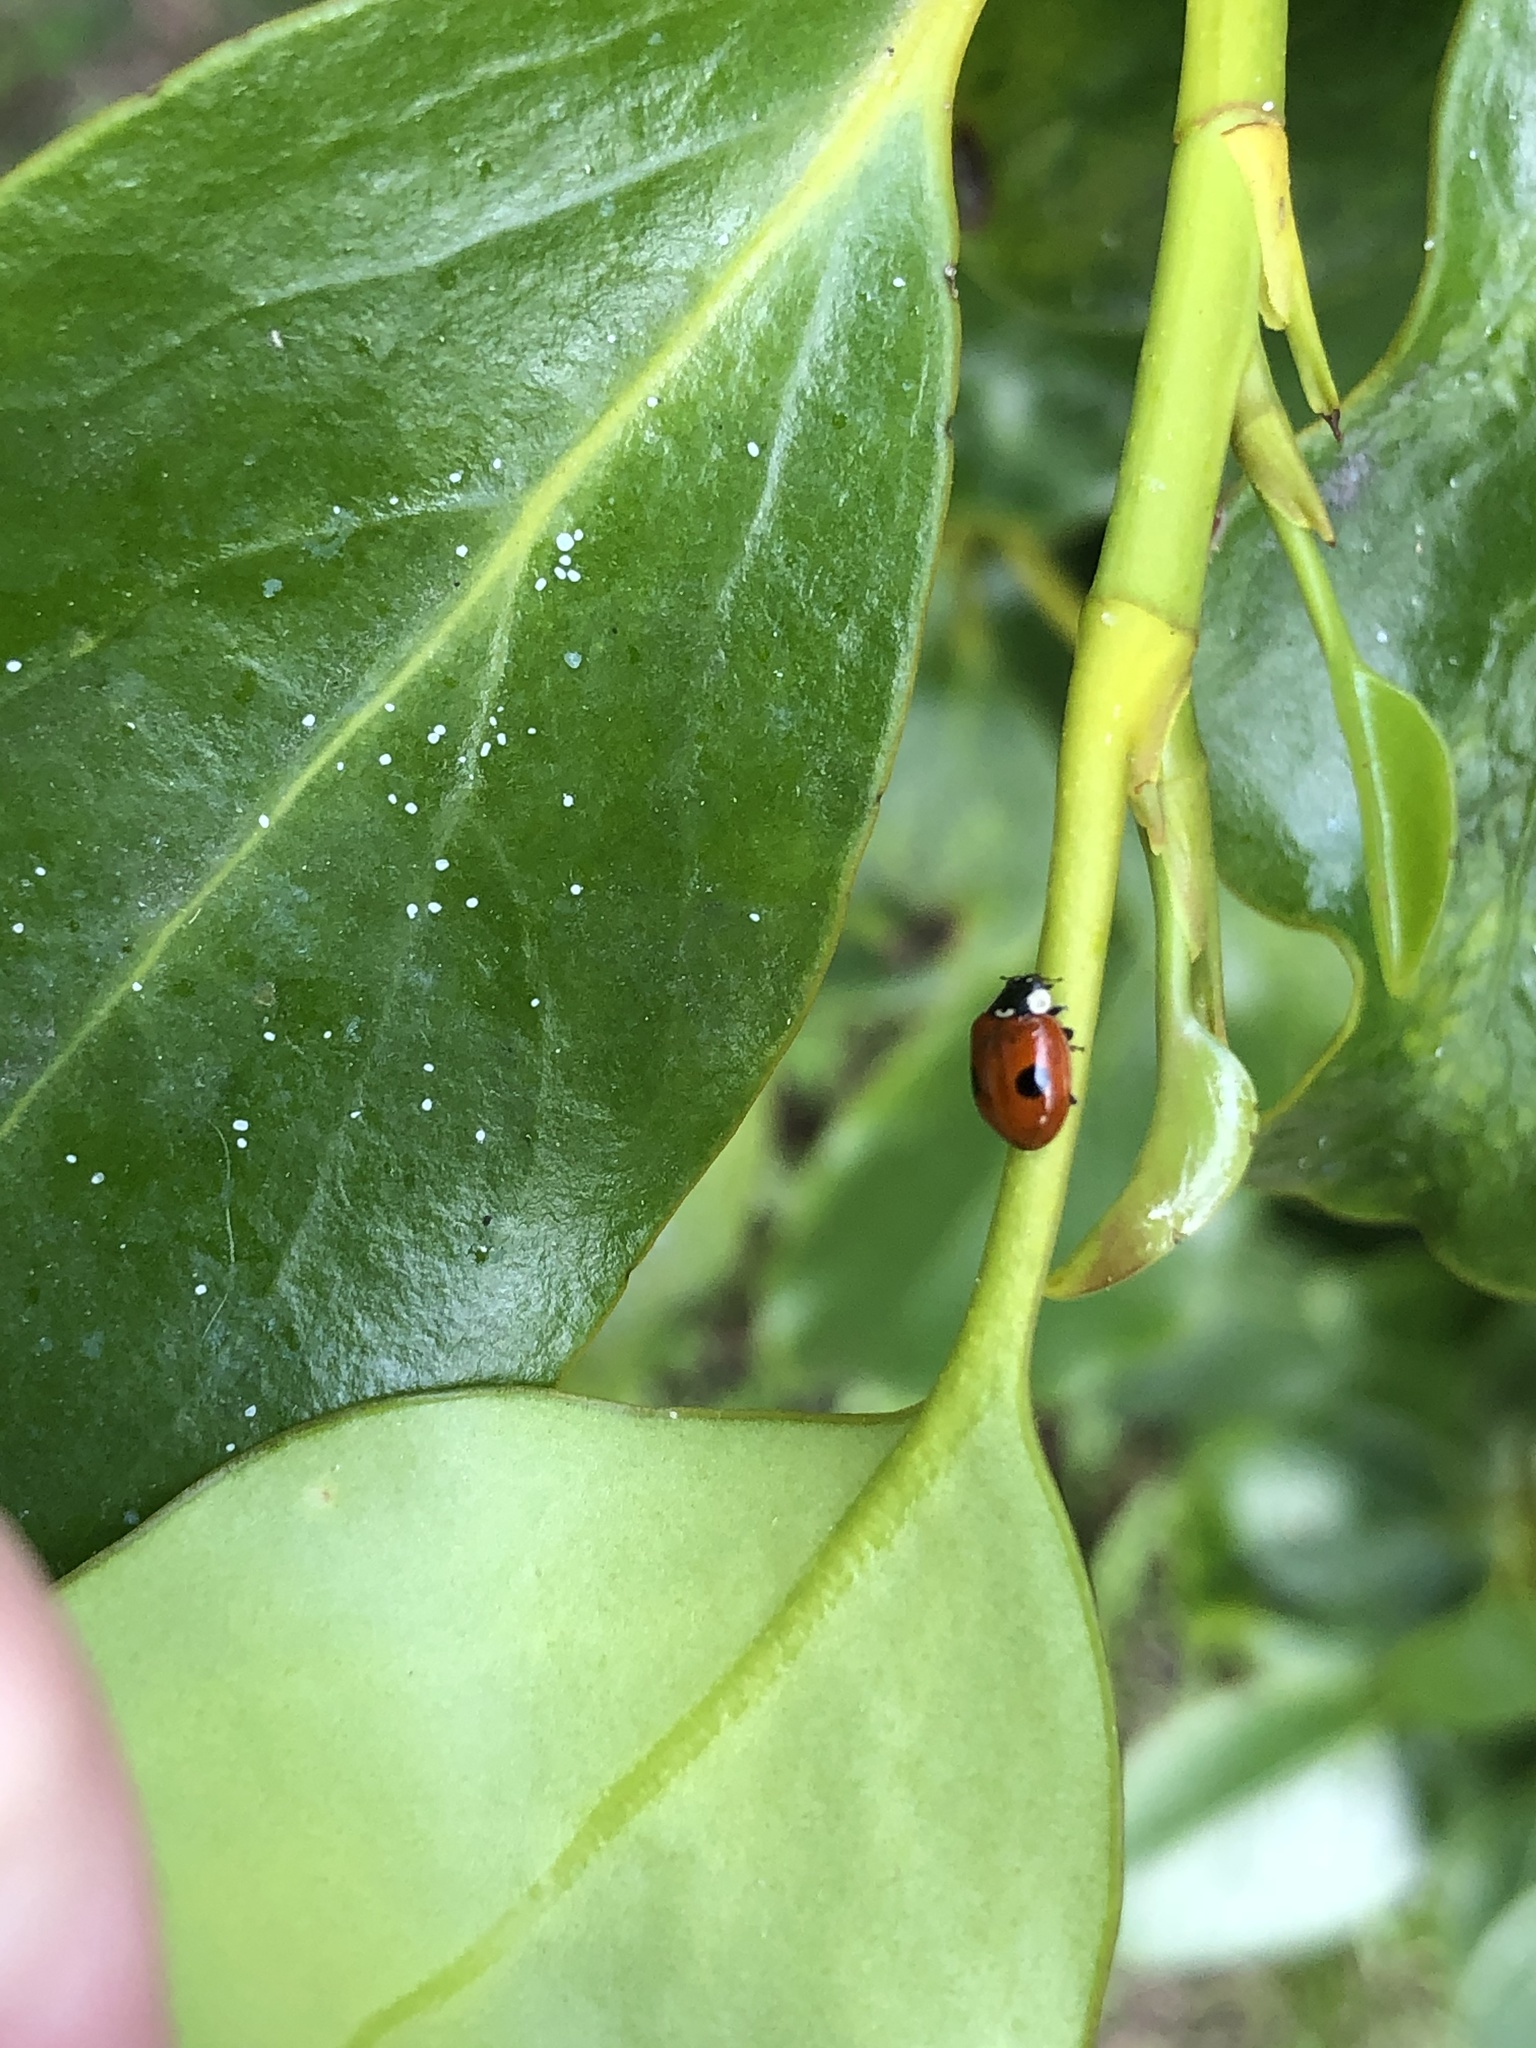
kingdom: Animalia
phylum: Arthropoda
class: Insecta
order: Coleoptera
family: Coccinellidae
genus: Adalia
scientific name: Adalia bipunctata
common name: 2-spot ladybird
